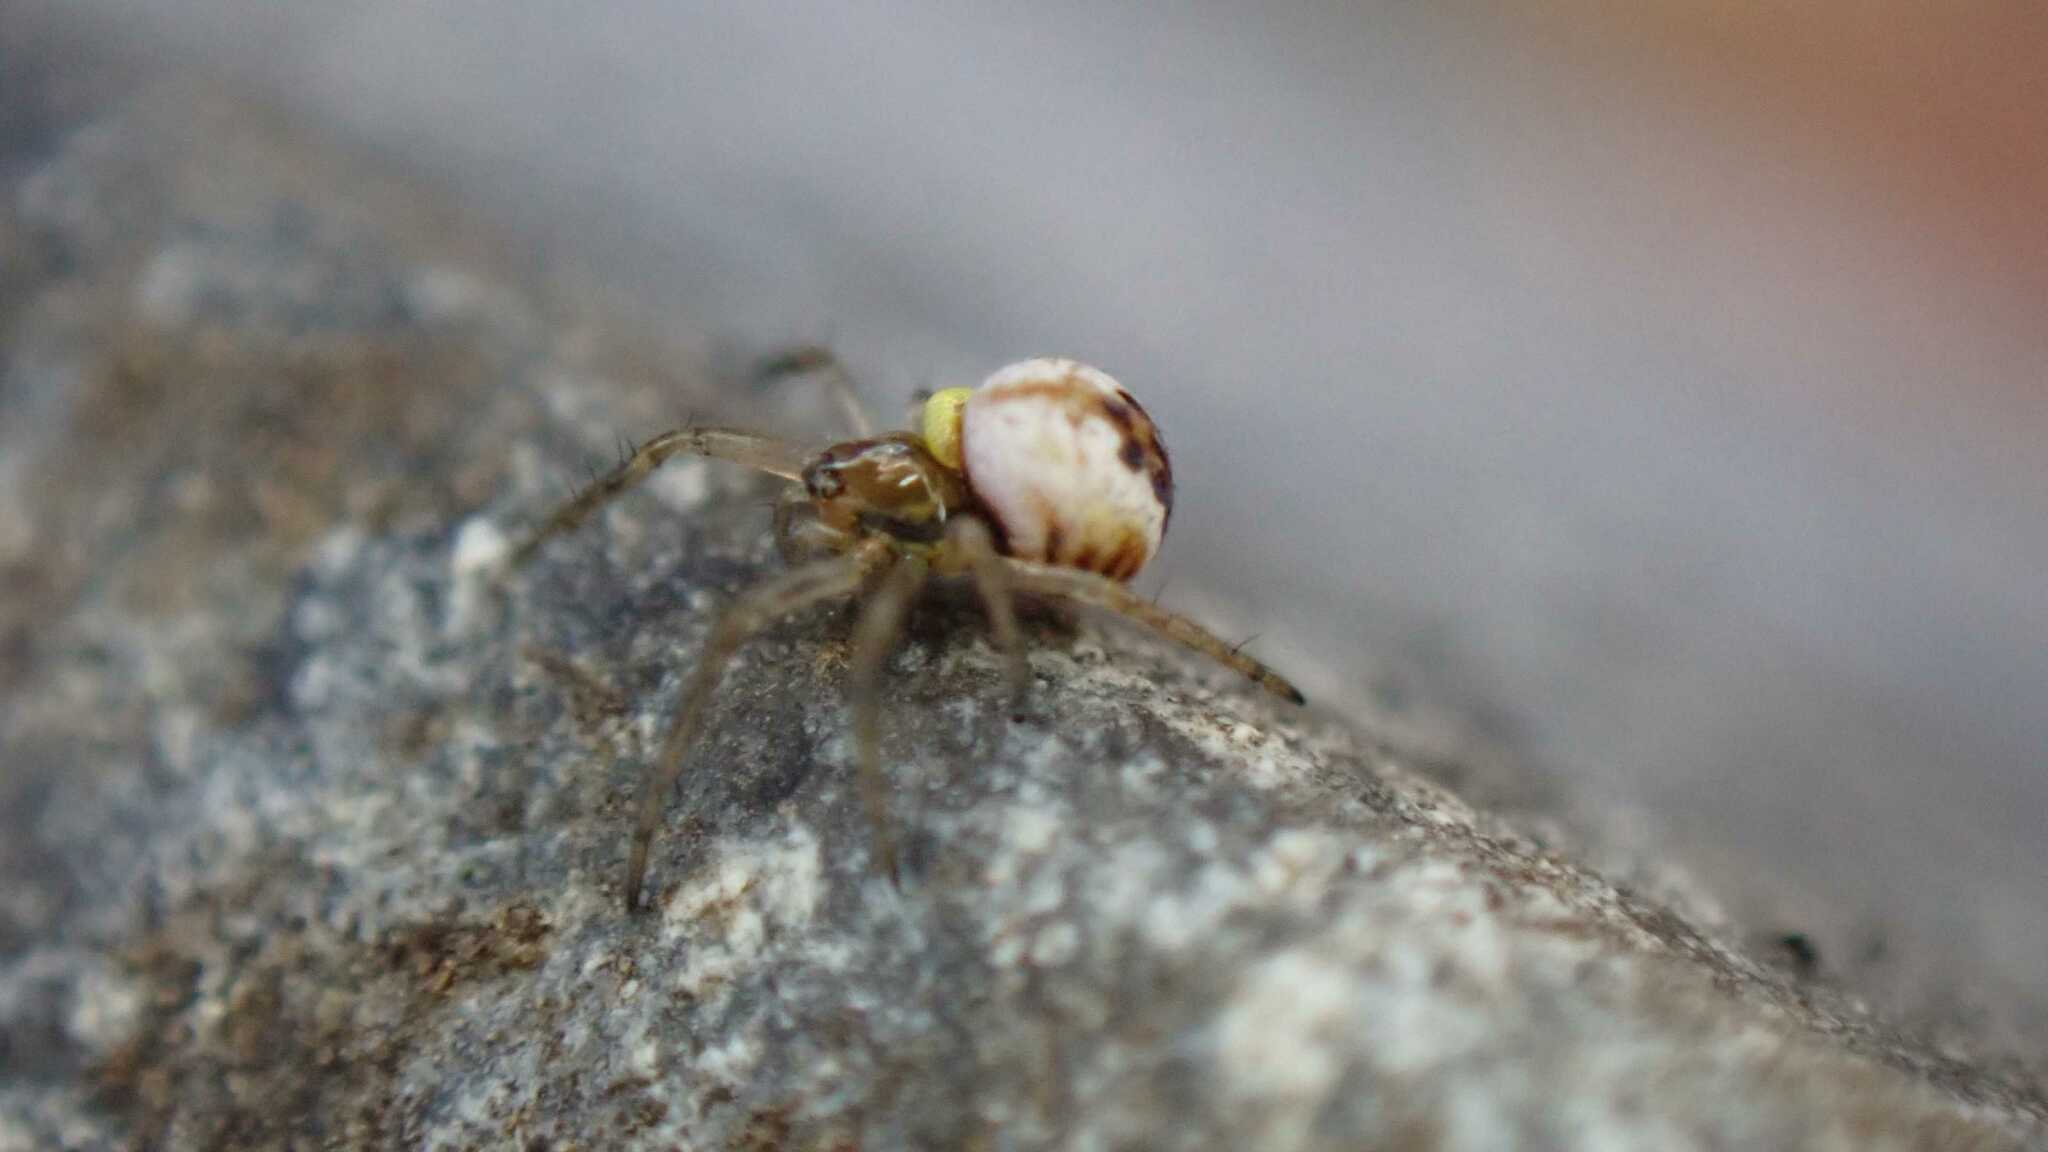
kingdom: Animalia
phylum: Arthropoda
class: Arachnida
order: Araneae
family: Araneidae
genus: Mangora
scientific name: Mangora acalypha
